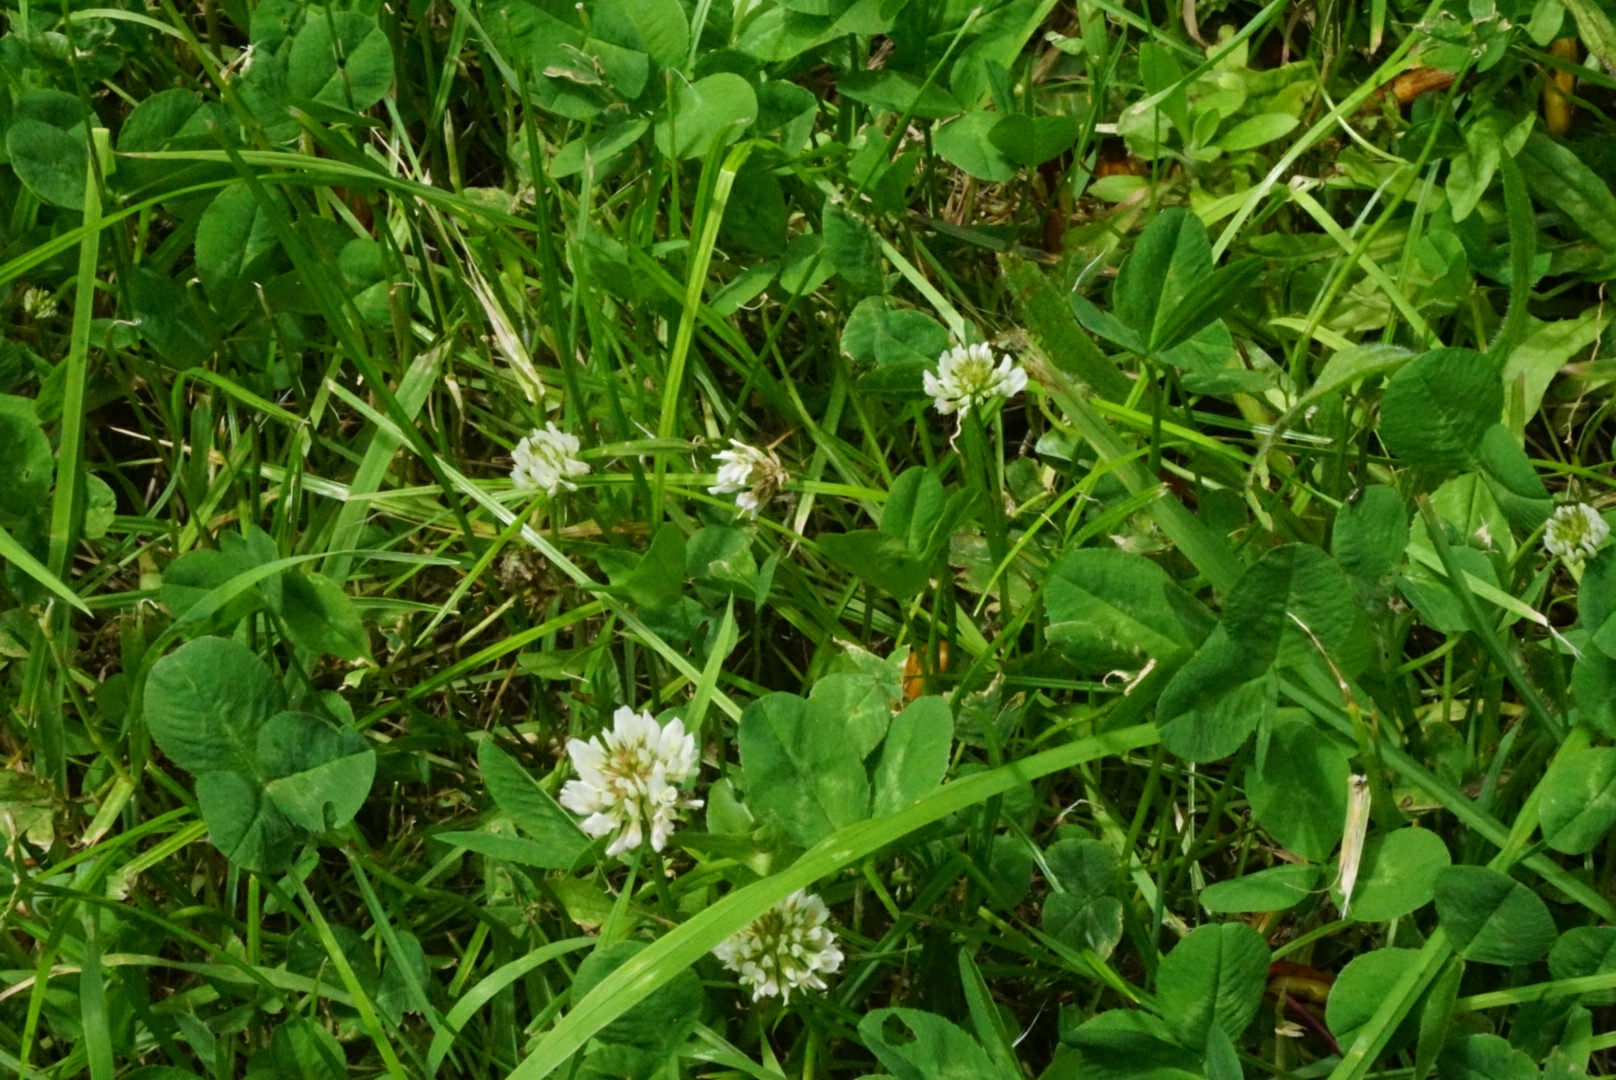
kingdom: Plantae
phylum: Tracheophyta
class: Magnoliopsida
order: Fabales
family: Fabaceae
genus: Trifolium
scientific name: Trifolium repens
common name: White clover
